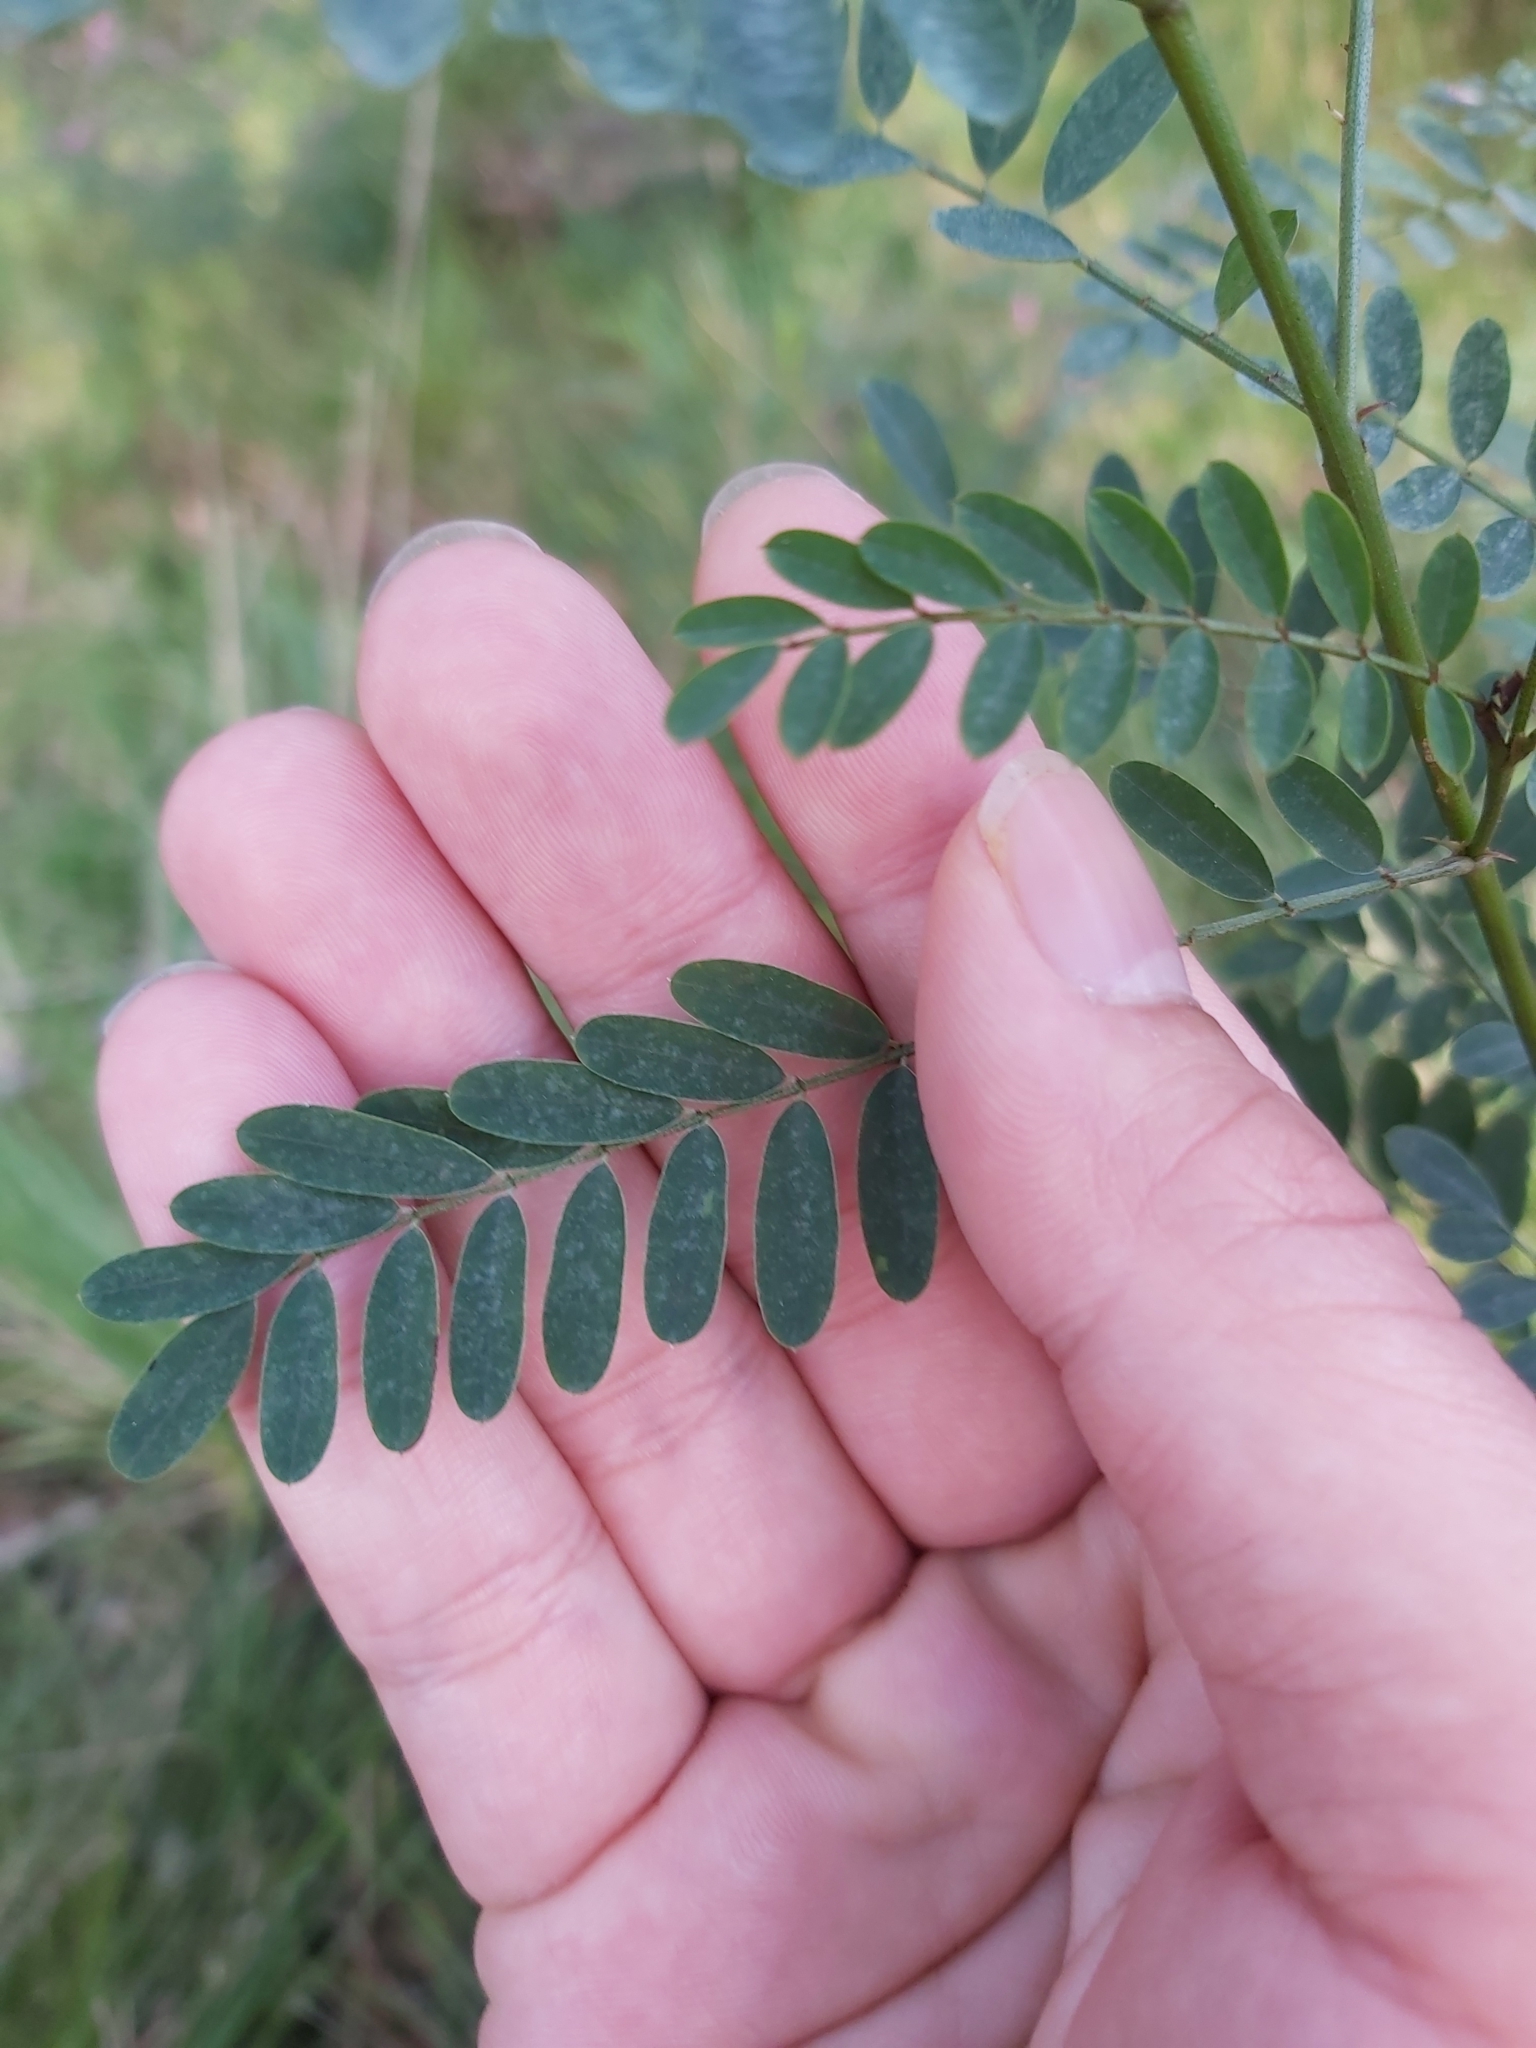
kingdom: Plantae
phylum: Tracheophyta
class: Magnoliopsida
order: Fabales
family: Fabaceae
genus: Indigofera
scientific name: Indigofera australis
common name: Australian indigo
